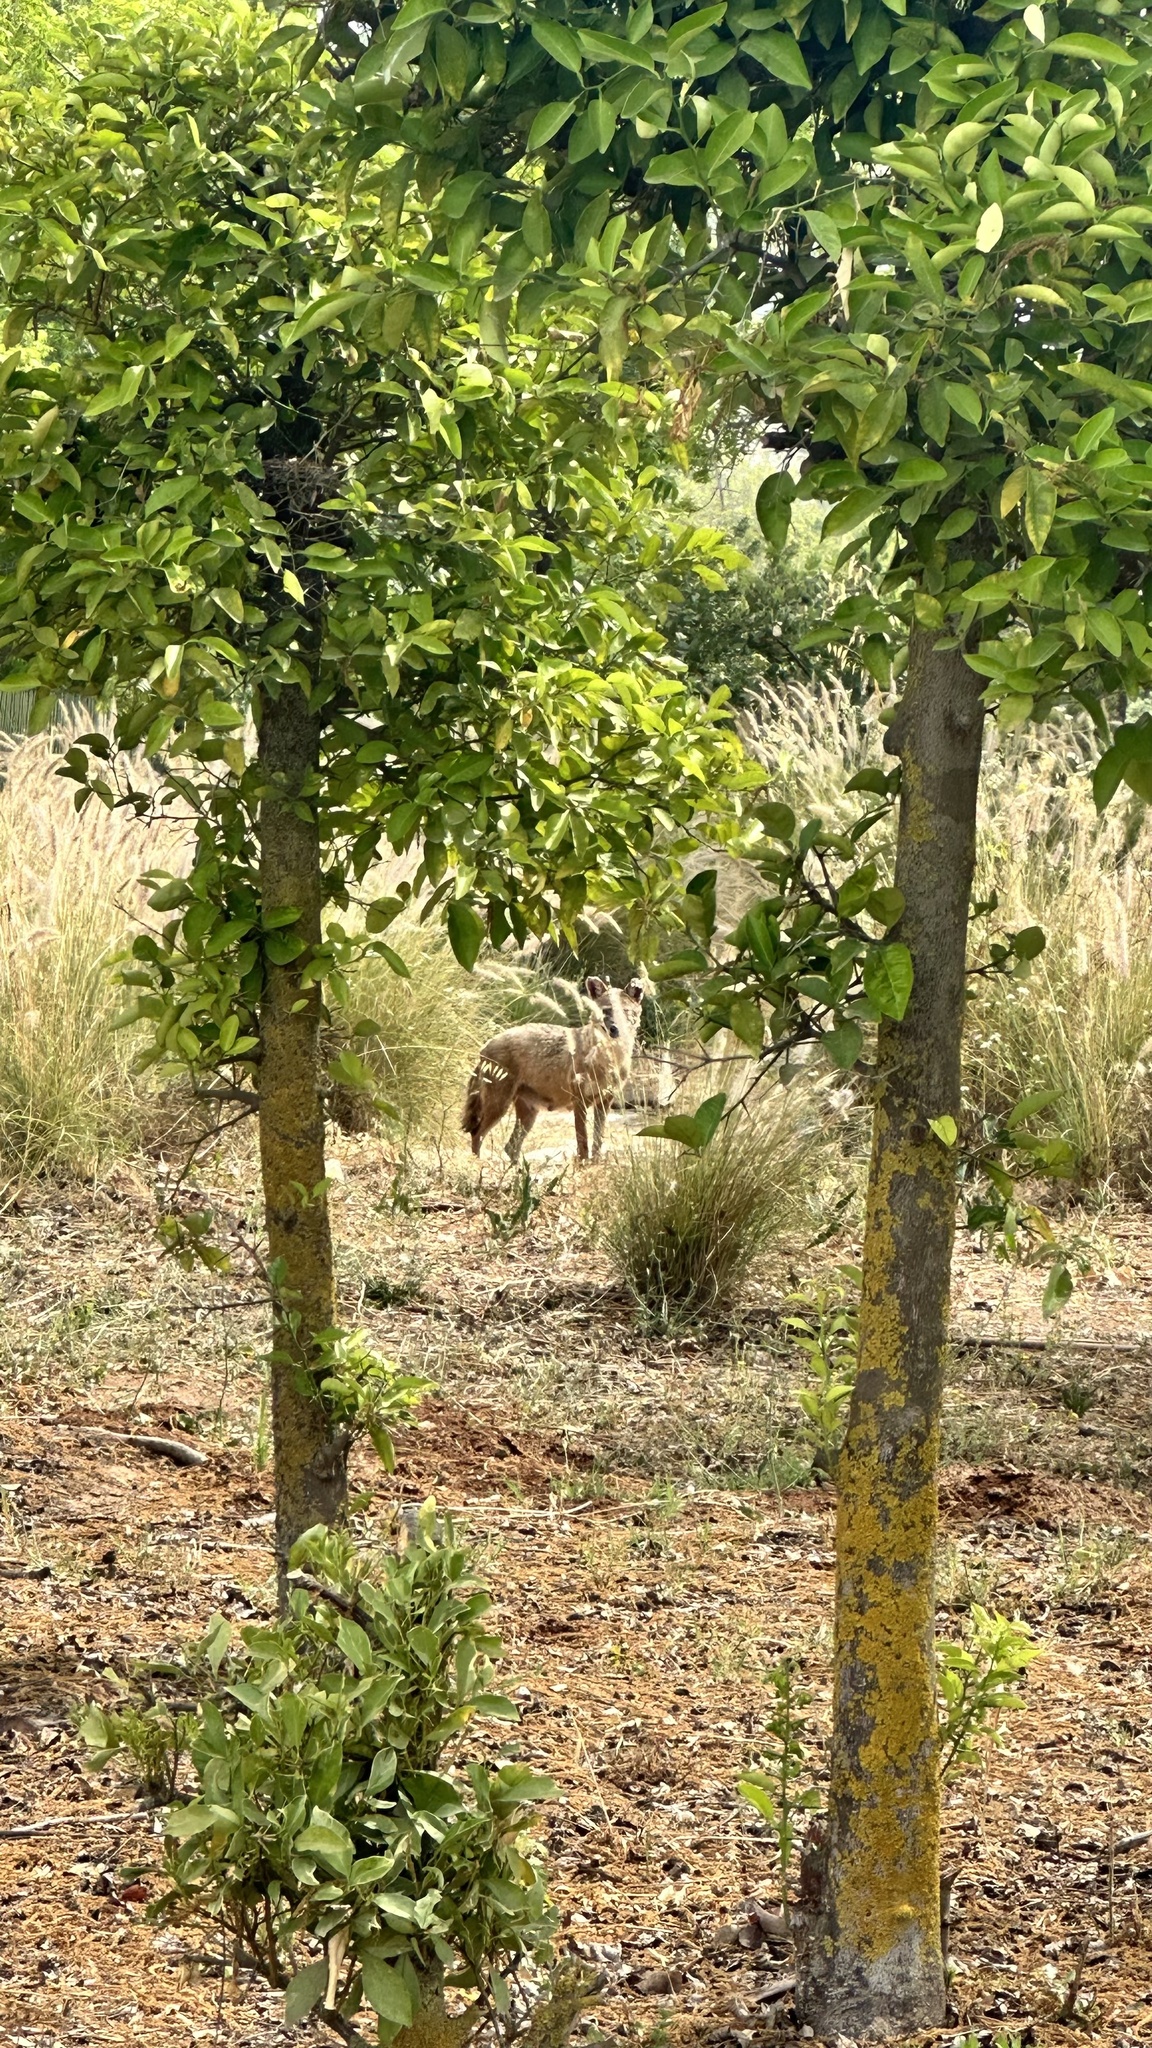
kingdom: Animalia
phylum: Chordata
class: Mammalia
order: Carnivora
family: Canidae
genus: Canis
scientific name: Canis aureus
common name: Golden jackal
